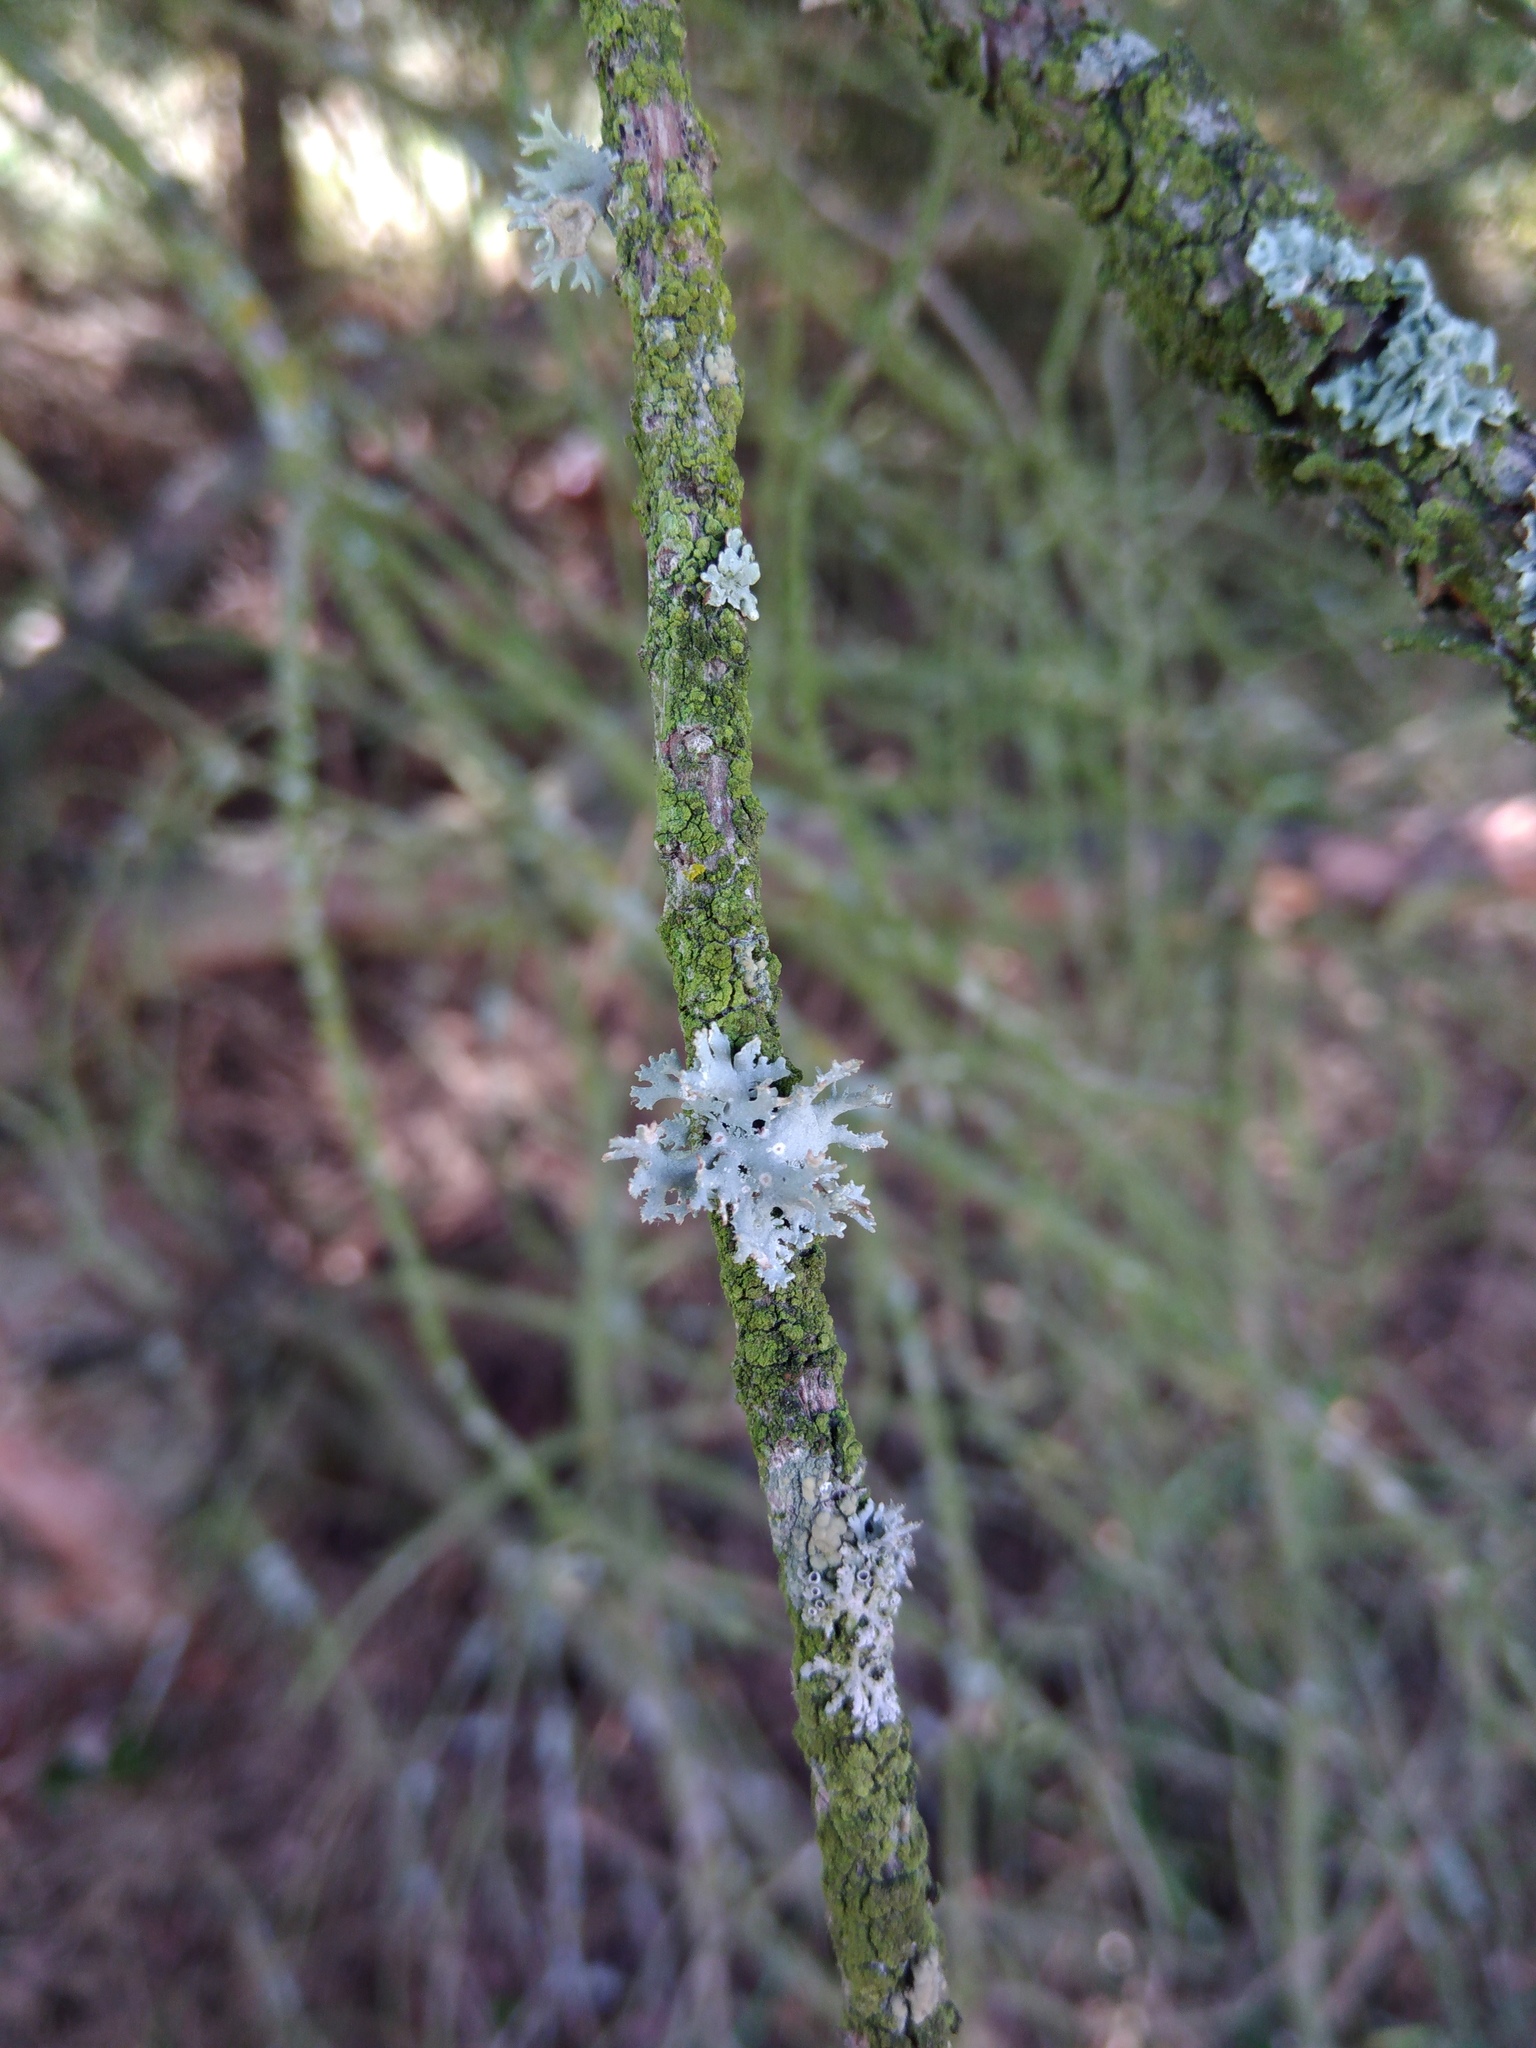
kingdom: Fungi
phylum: Ascomycota
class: Lecanoromycetes
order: Lecanorales
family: Parmeliaceae
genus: Pseudevernia
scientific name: Pseudevernia furfuracea
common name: Tree moss
